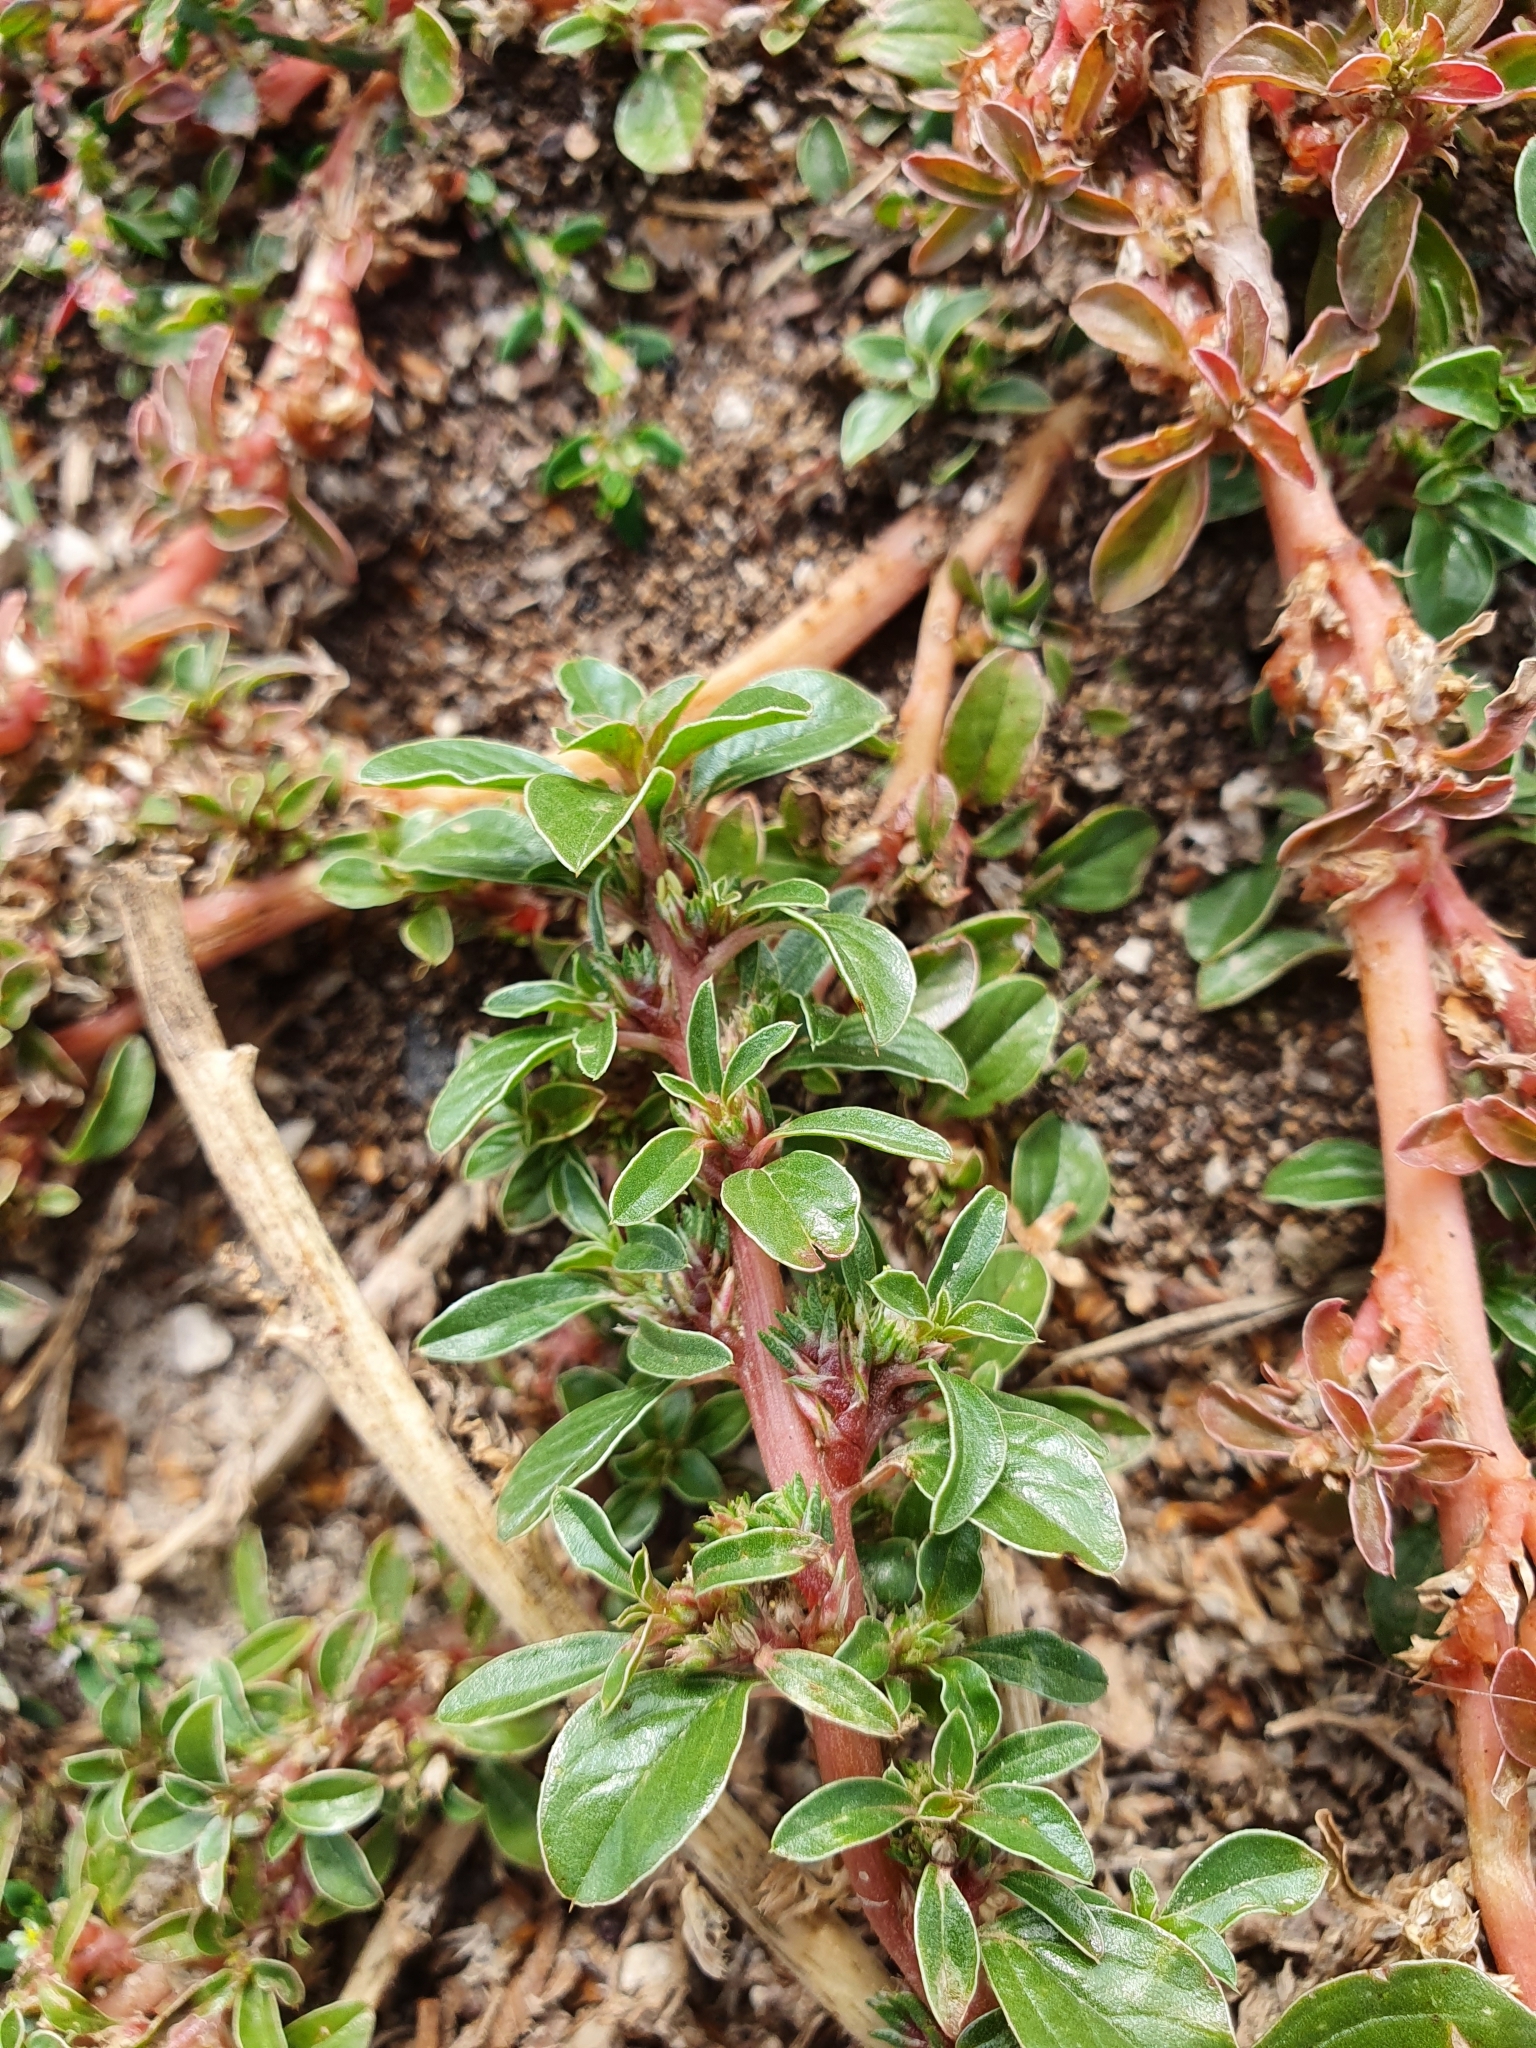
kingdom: Plantae
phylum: Tracheophyta
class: Magnoliopsida
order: Caryophyllales
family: Amaranthaceae
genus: Amaranthus
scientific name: Amaranthus blitoides
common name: Prostrate pigweed
